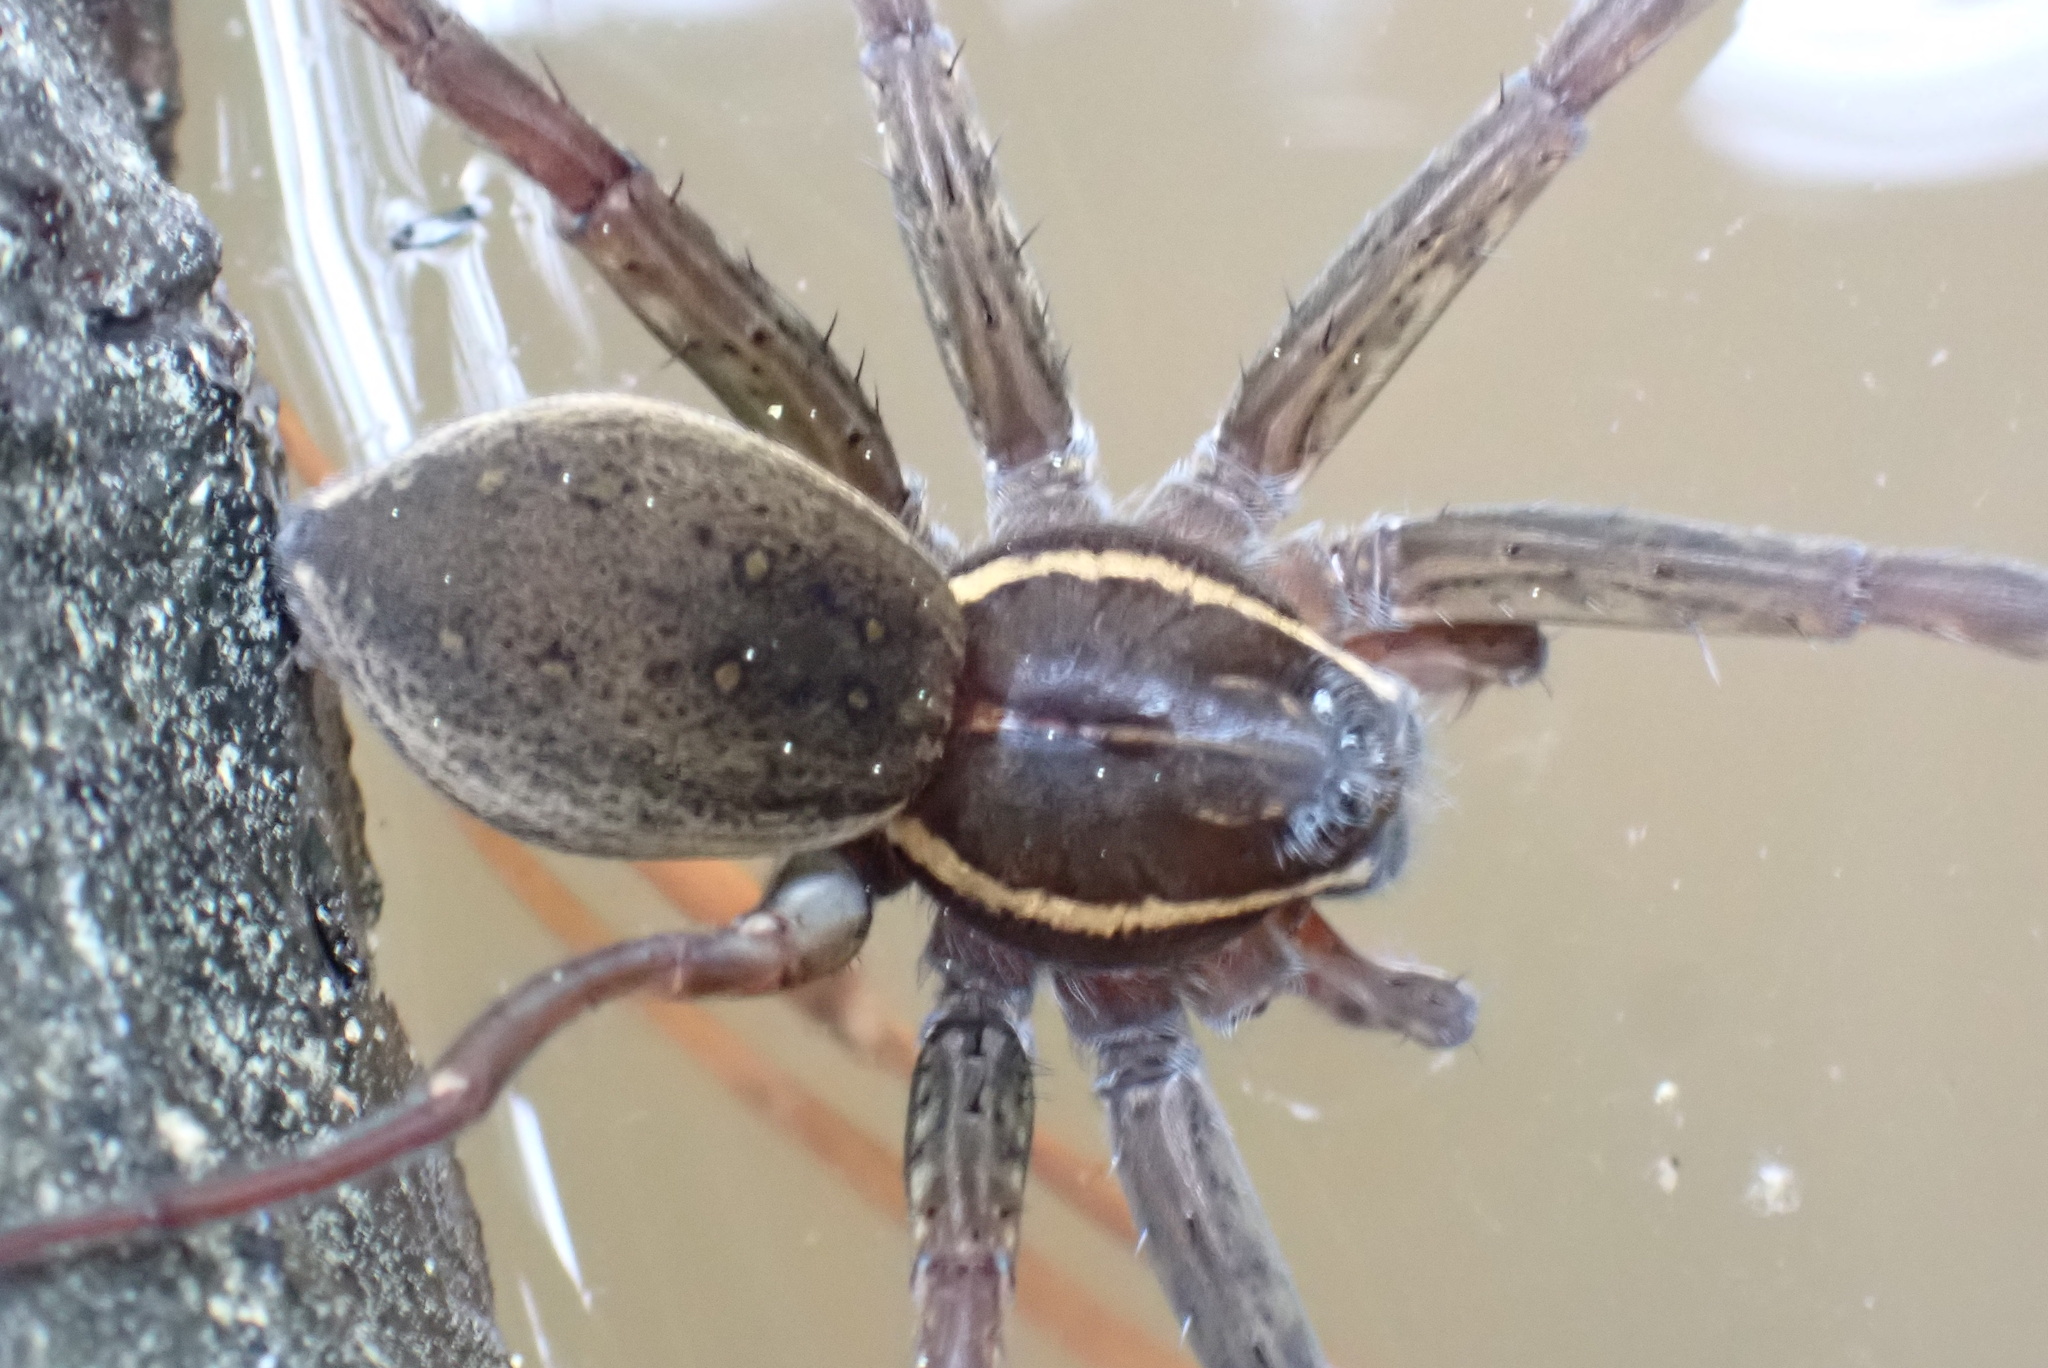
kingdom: Animalia
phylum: Arthropoda
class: Arachnida
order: Araneae
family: Pisauridae
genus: Dolomedes
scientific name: Dolomedes triton
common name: Six-spotted fishing spider
